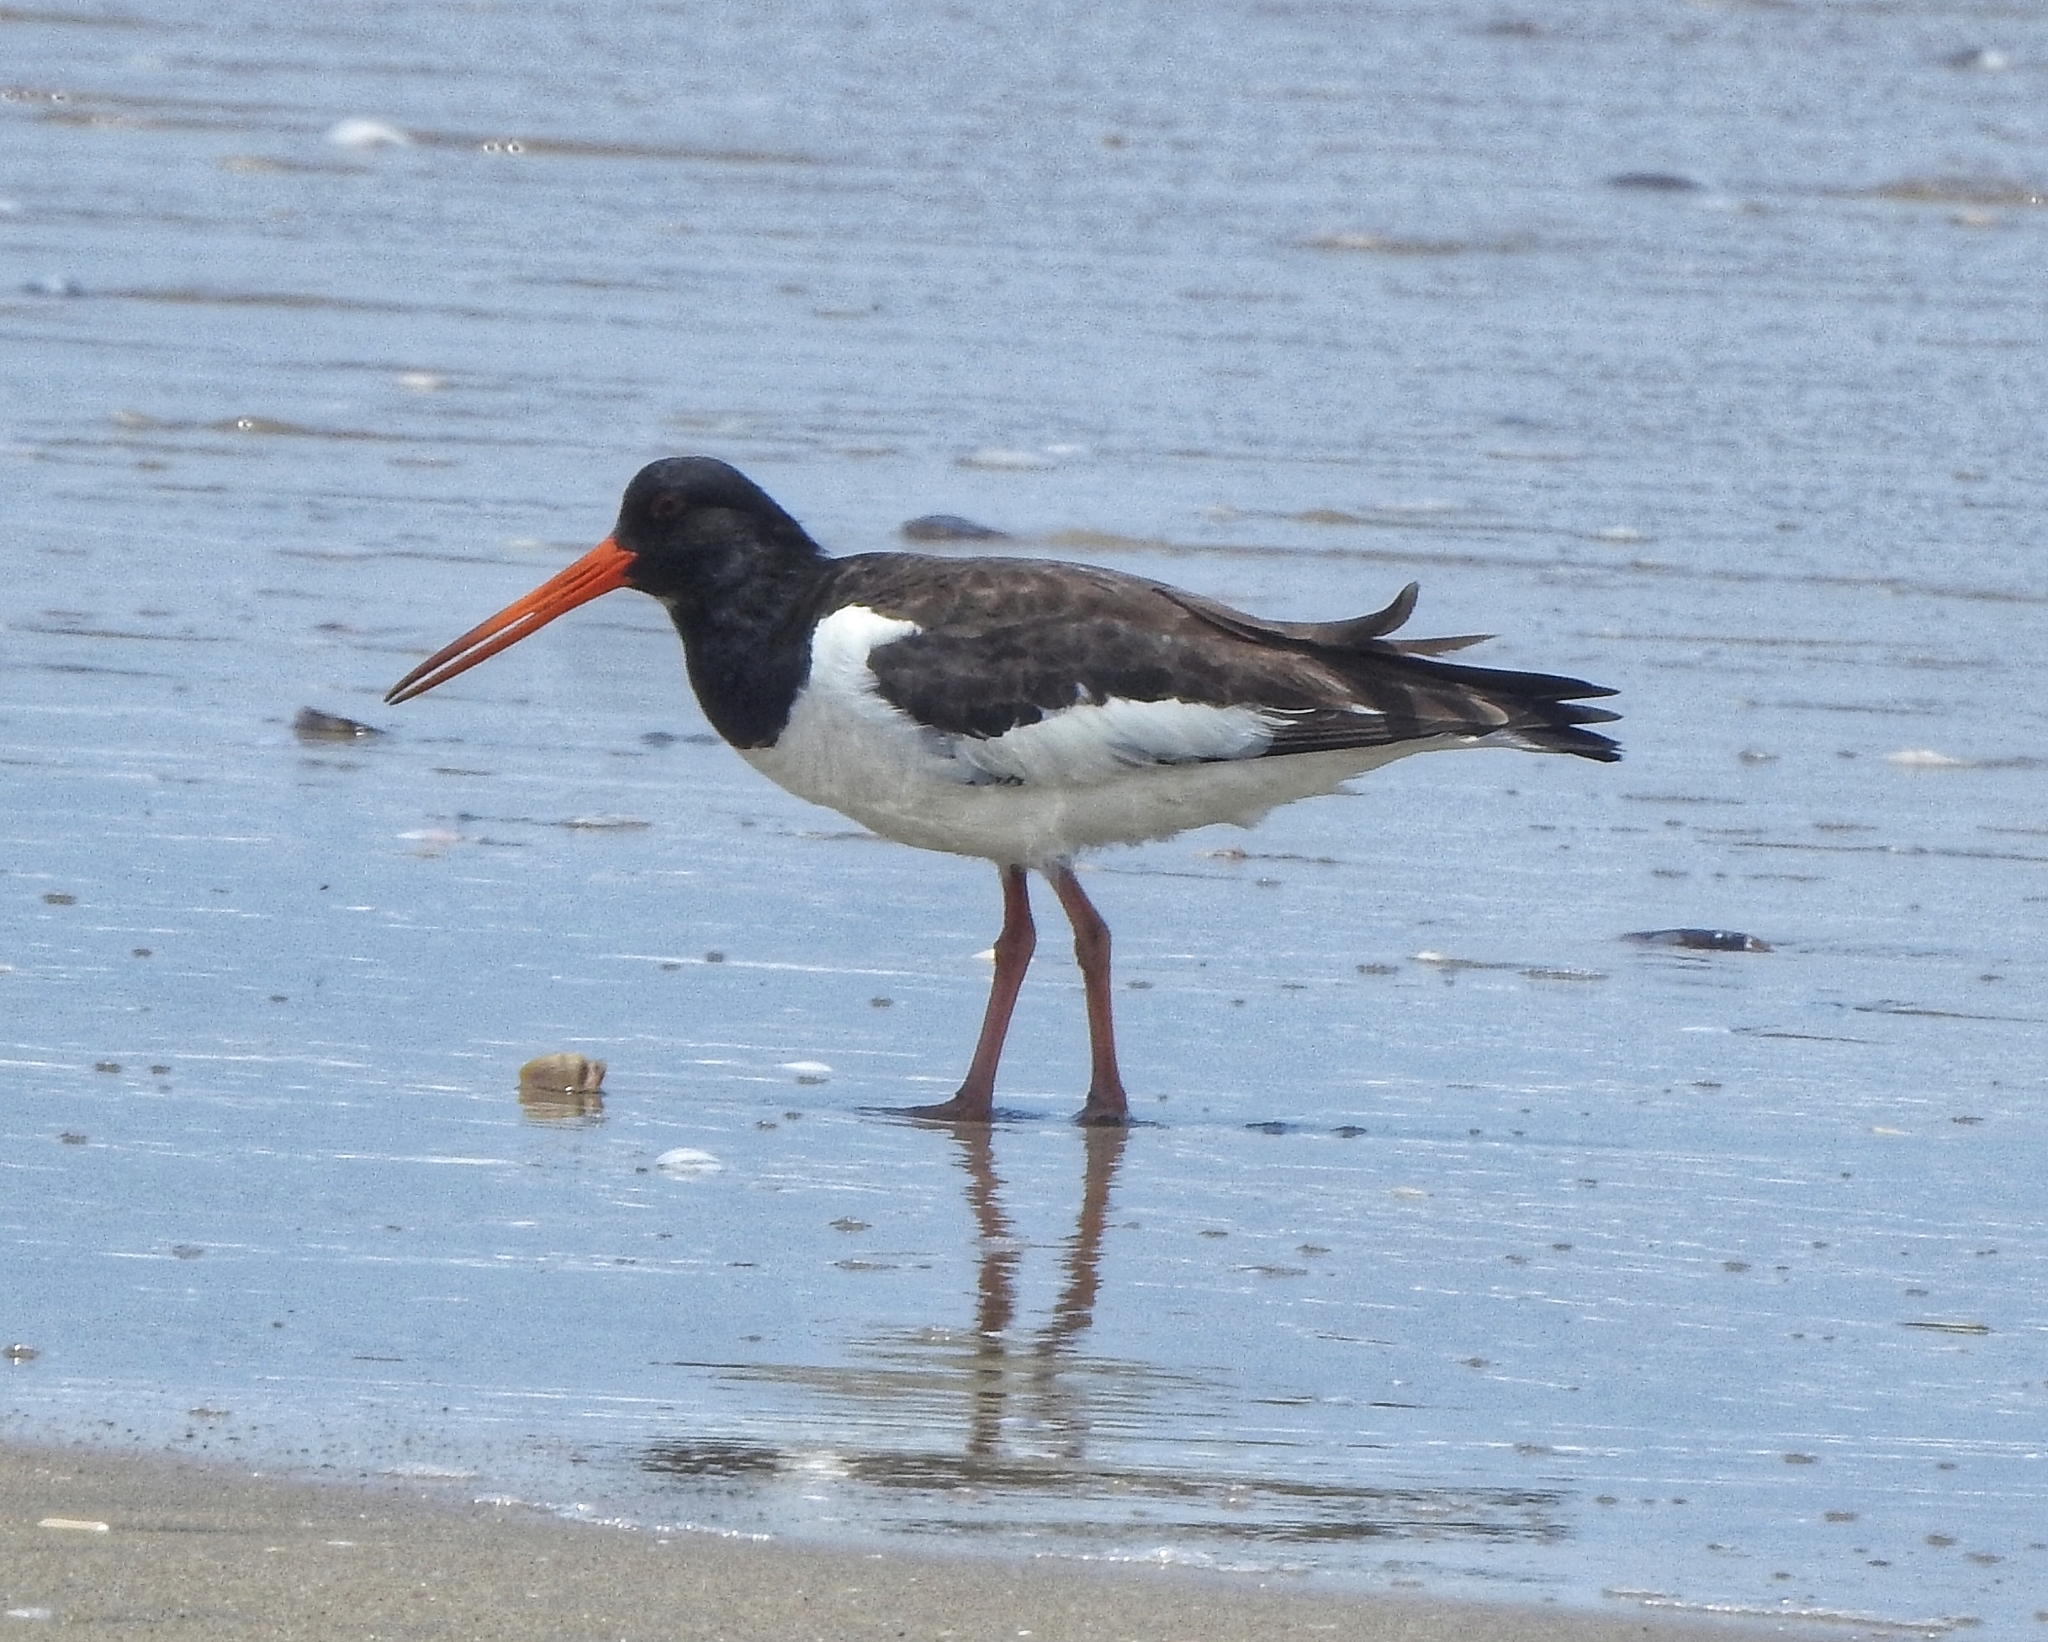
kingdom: Animalia
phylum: Chordata
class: Aves
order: Charadriiformes
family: Haematopodidae
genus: Haematopus
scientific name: Haematopus ostralegus
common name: Eurasian oystercatcher
